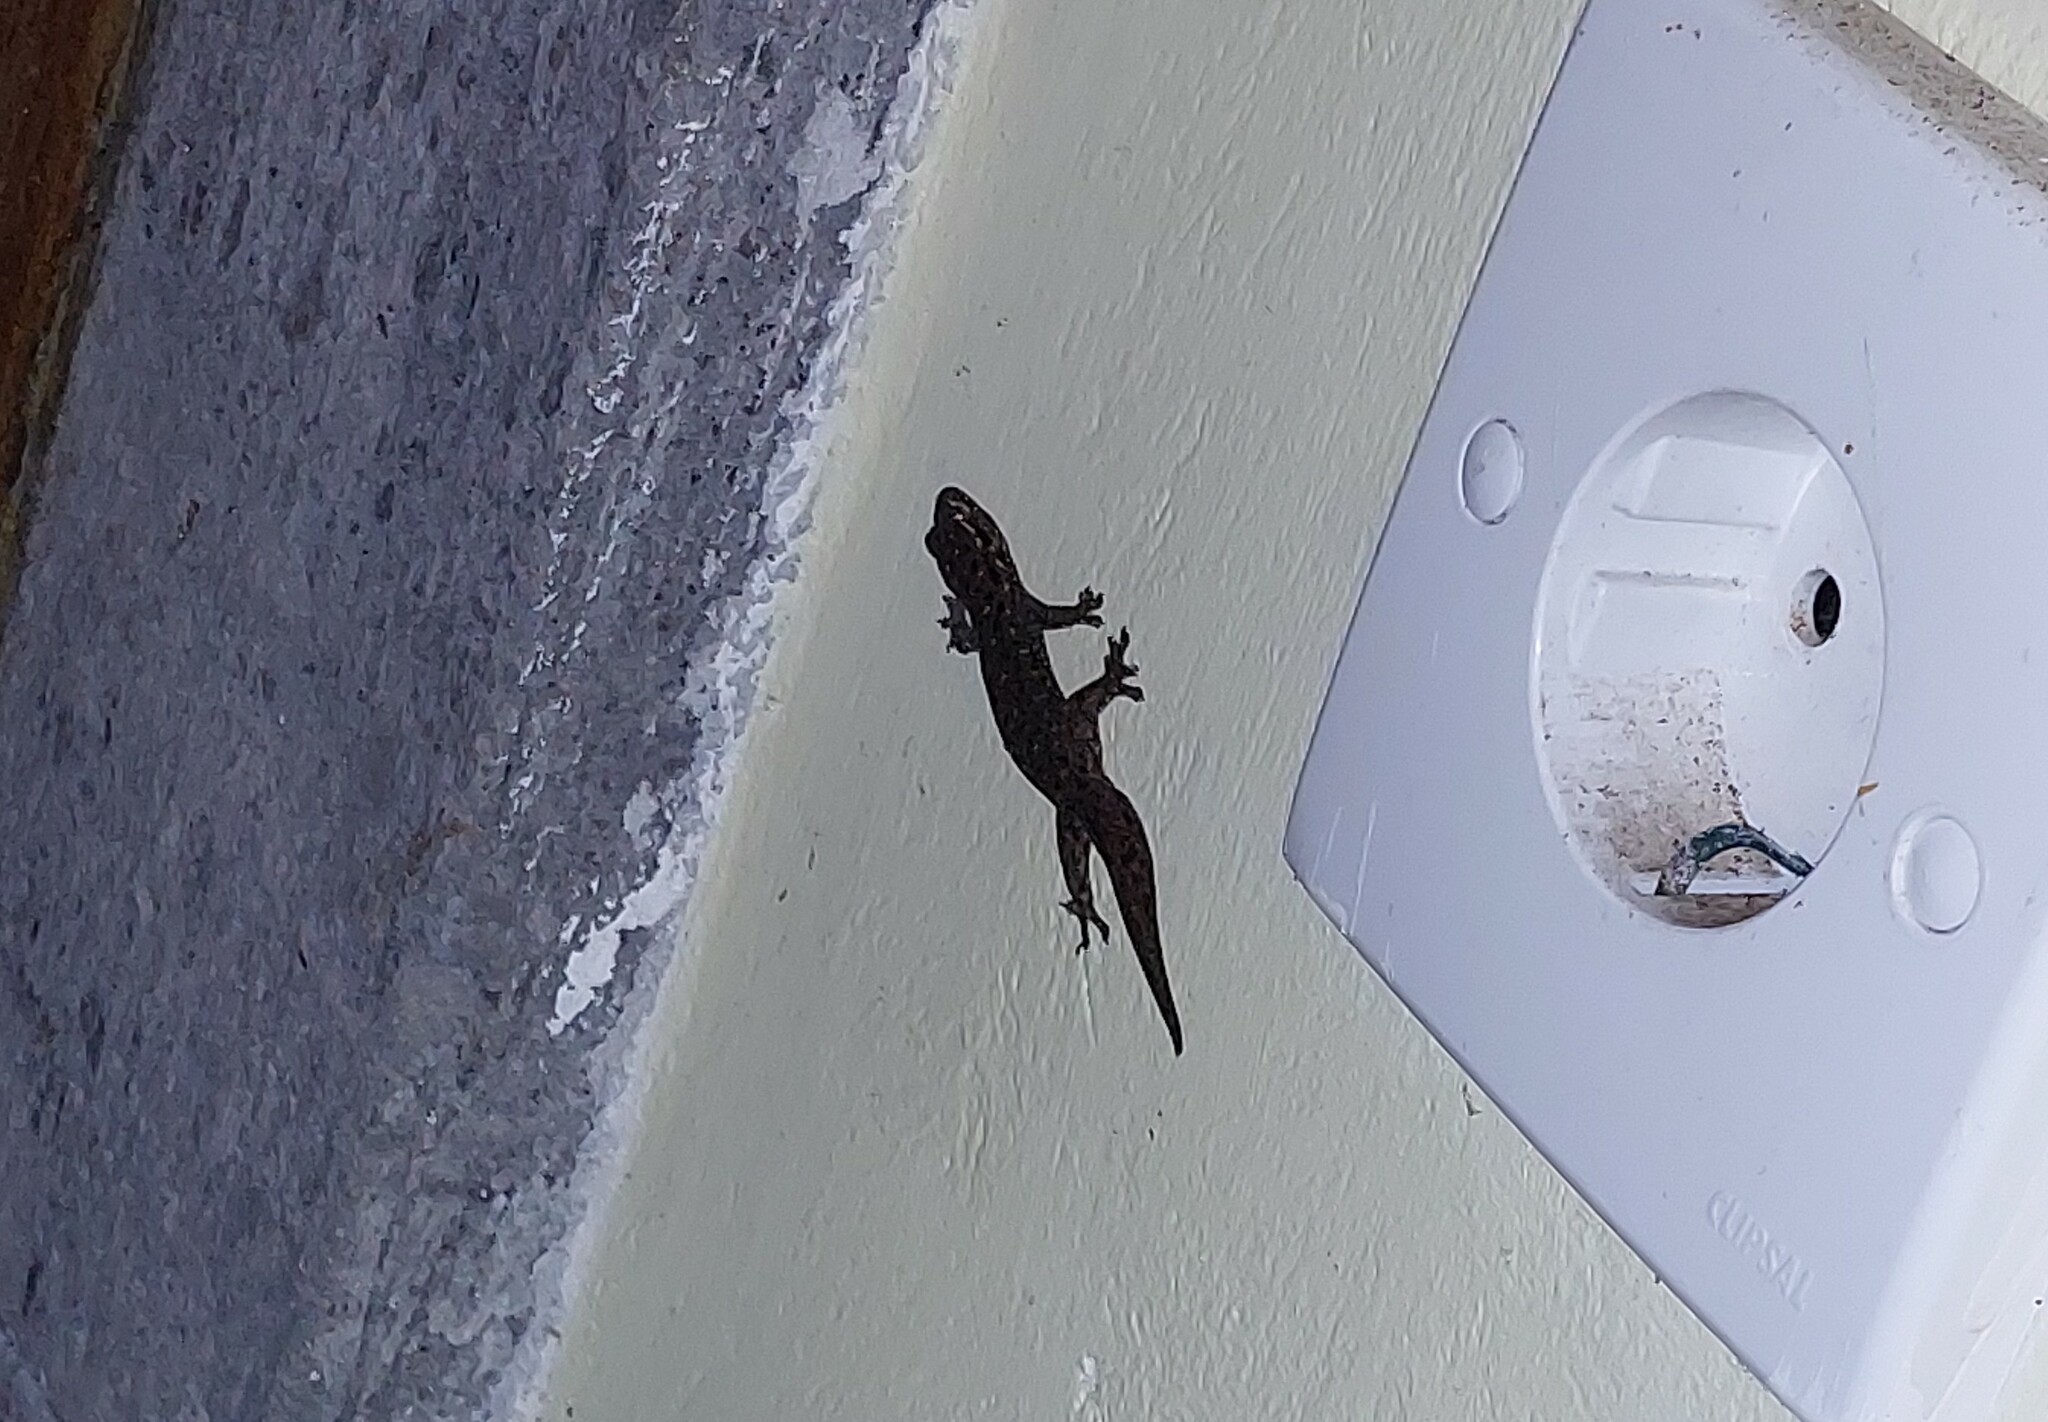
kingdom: Animalia
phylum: Chordata
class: Squamata
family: Gekkonidae
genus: Gehyra
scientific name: Gehyra mutilata
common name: Stump-toed gecko
